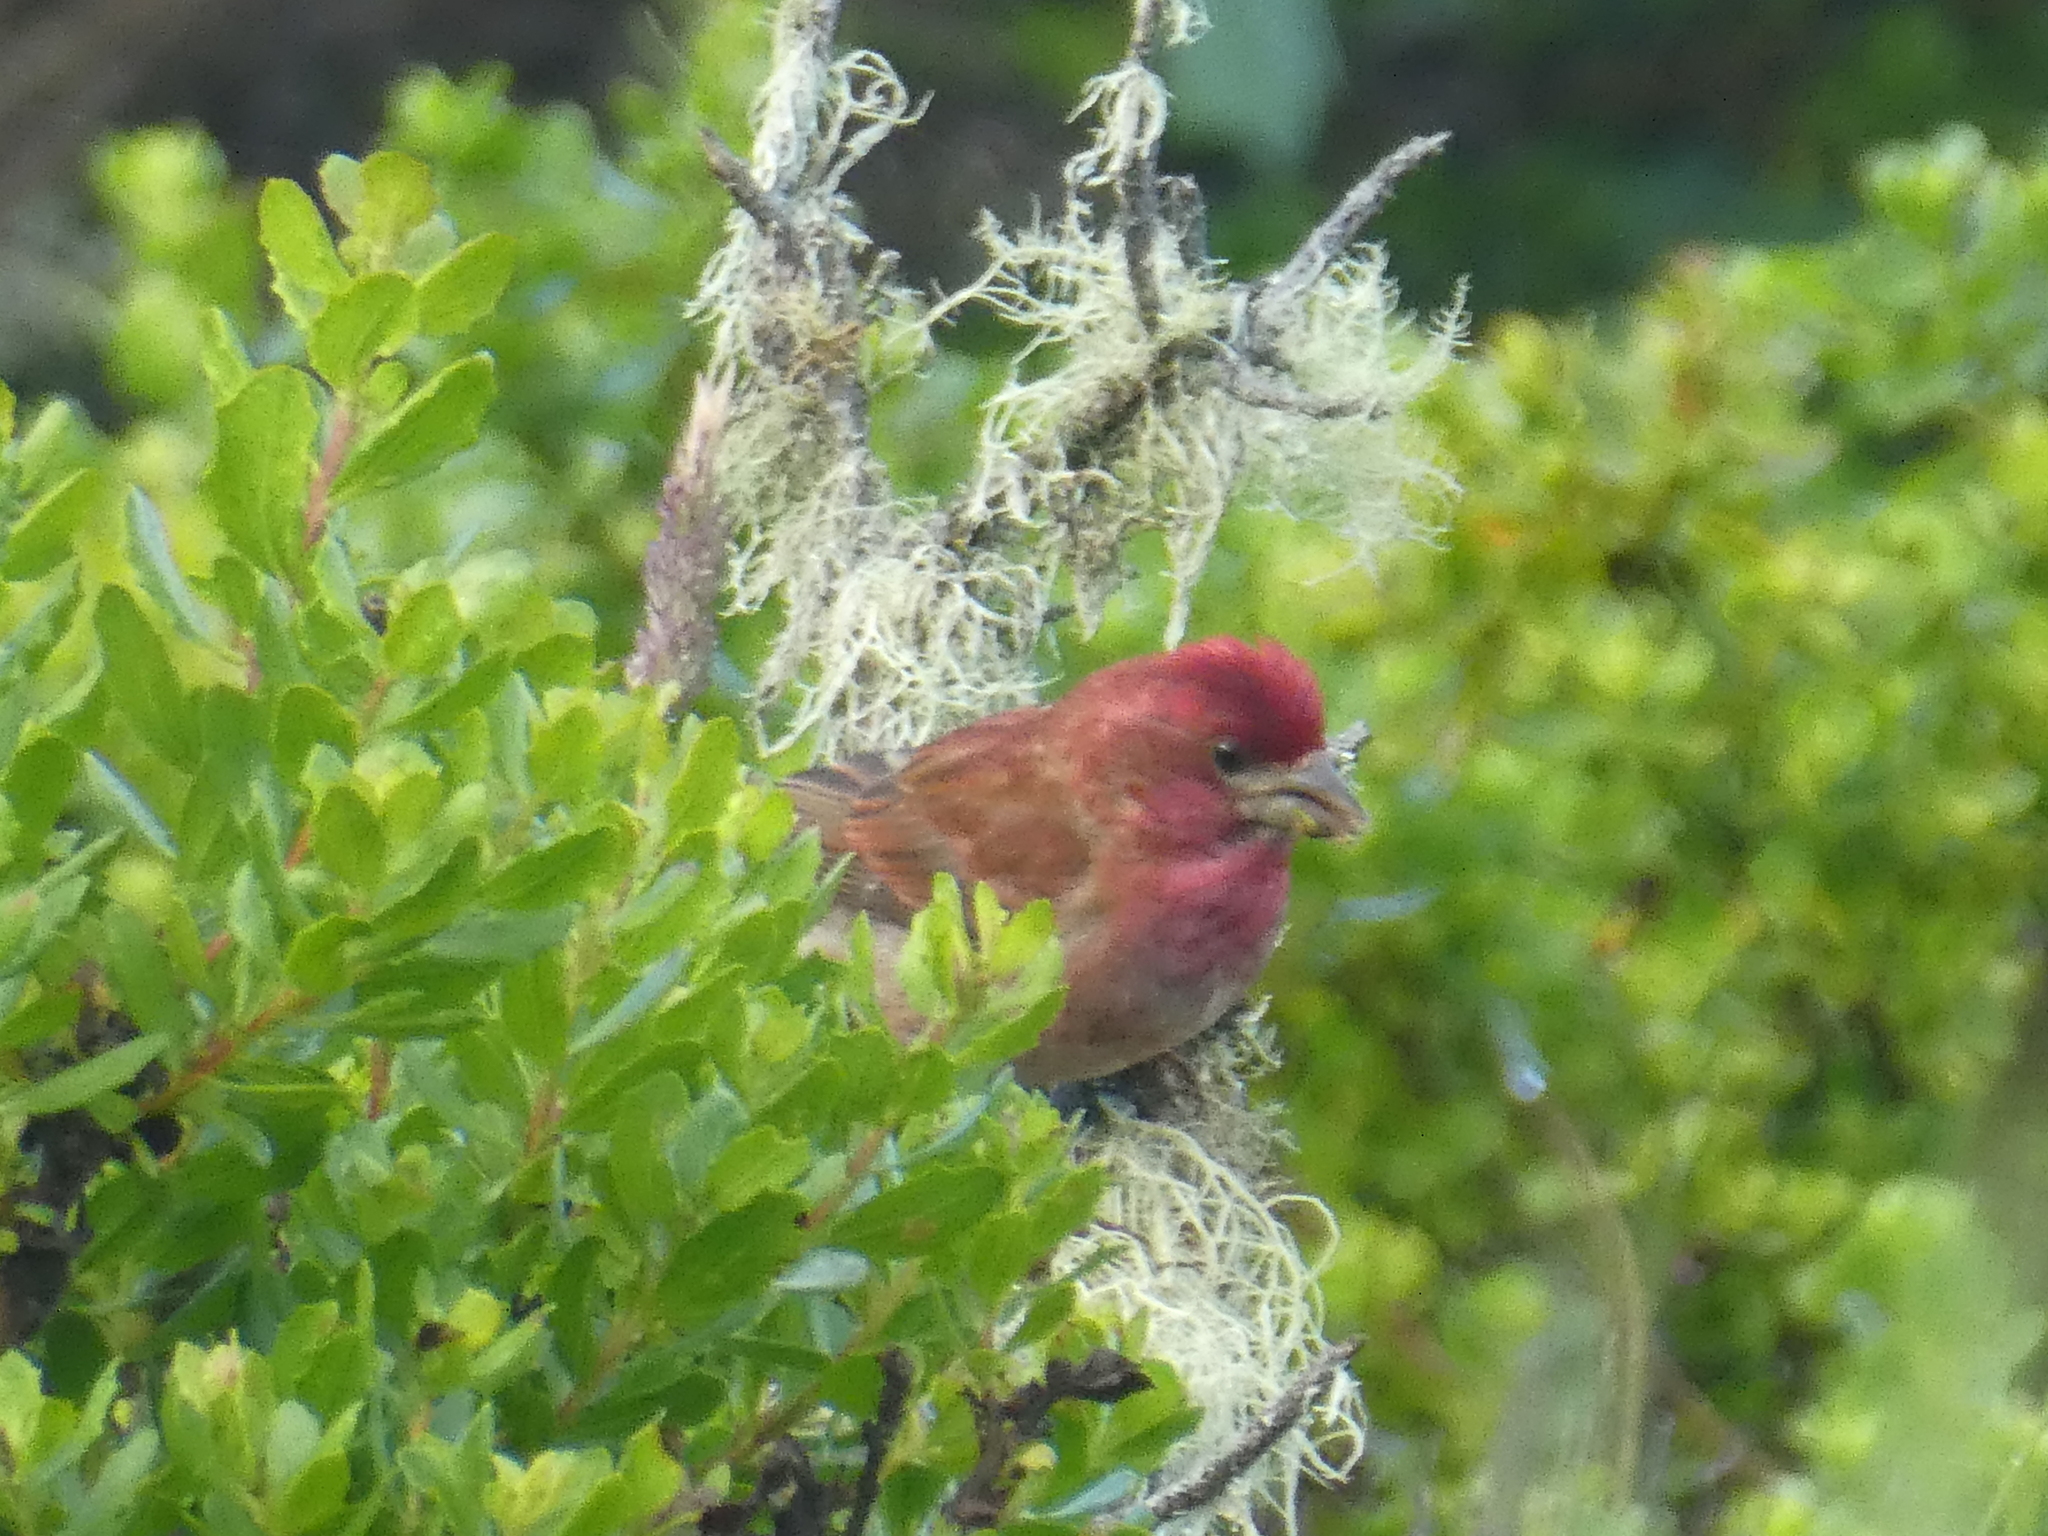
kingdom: Animalia
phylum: Chordata
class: Aves
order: Passeriformes
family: Fringillidae
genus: Haemorhous
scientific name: Haemorhous purpureus
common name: Purple finch
